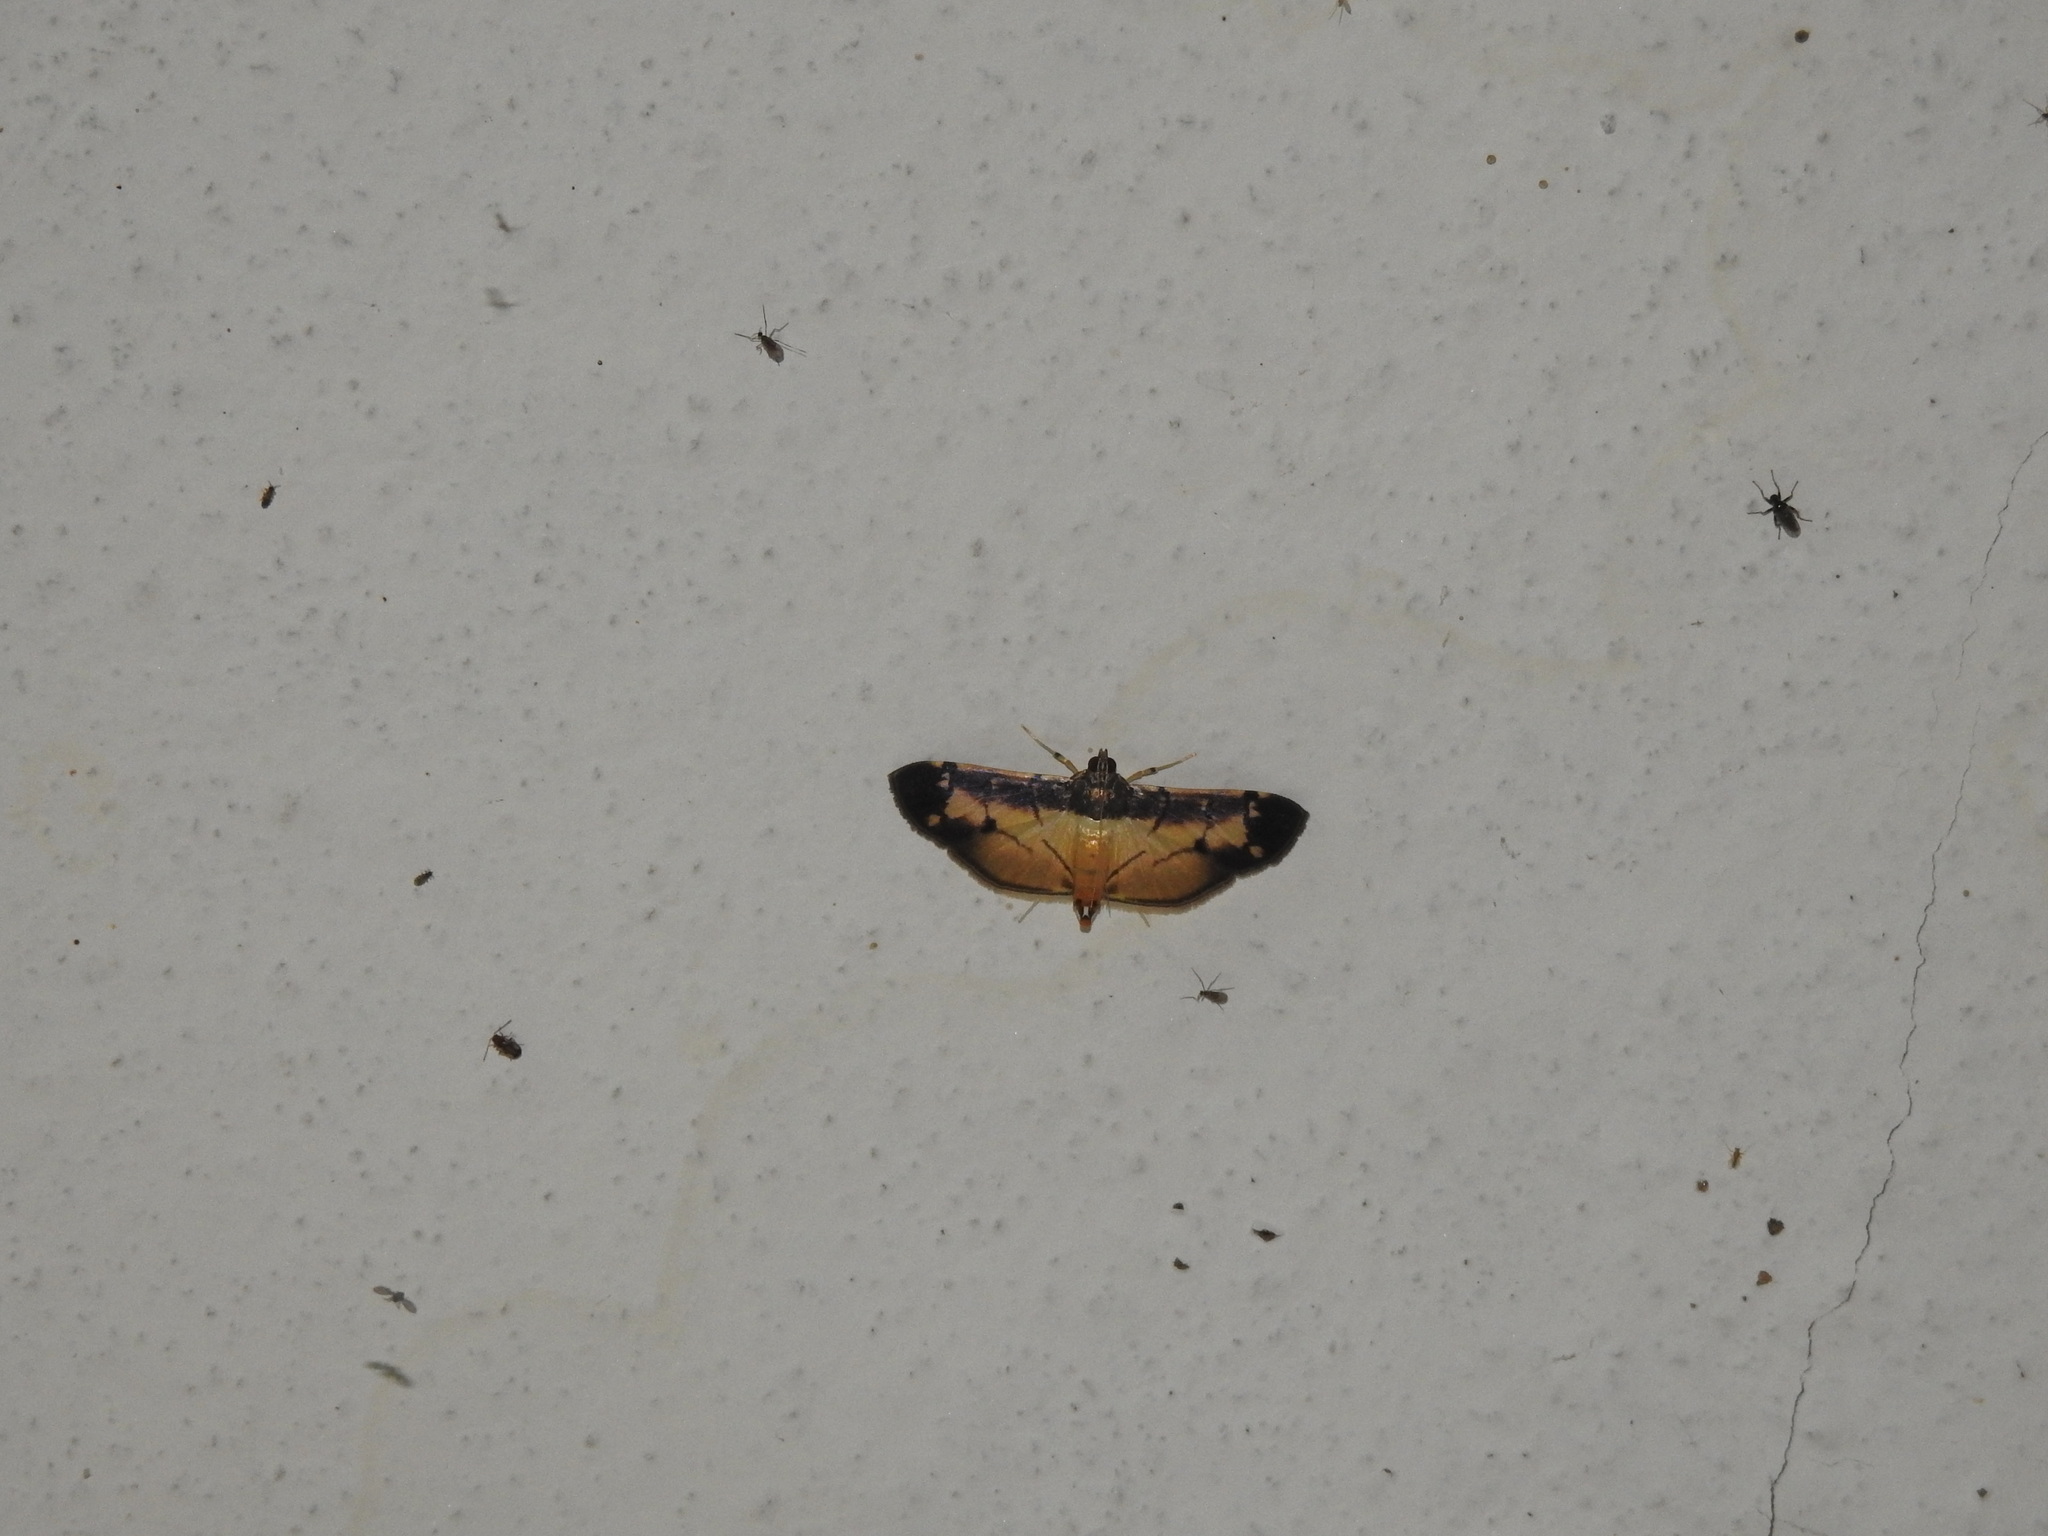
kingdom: Animalia
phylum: Arthropoda
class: Insecta
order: Lepidoptera
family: Crambidae
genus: Bacotoma
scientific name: Bacotoma violata
